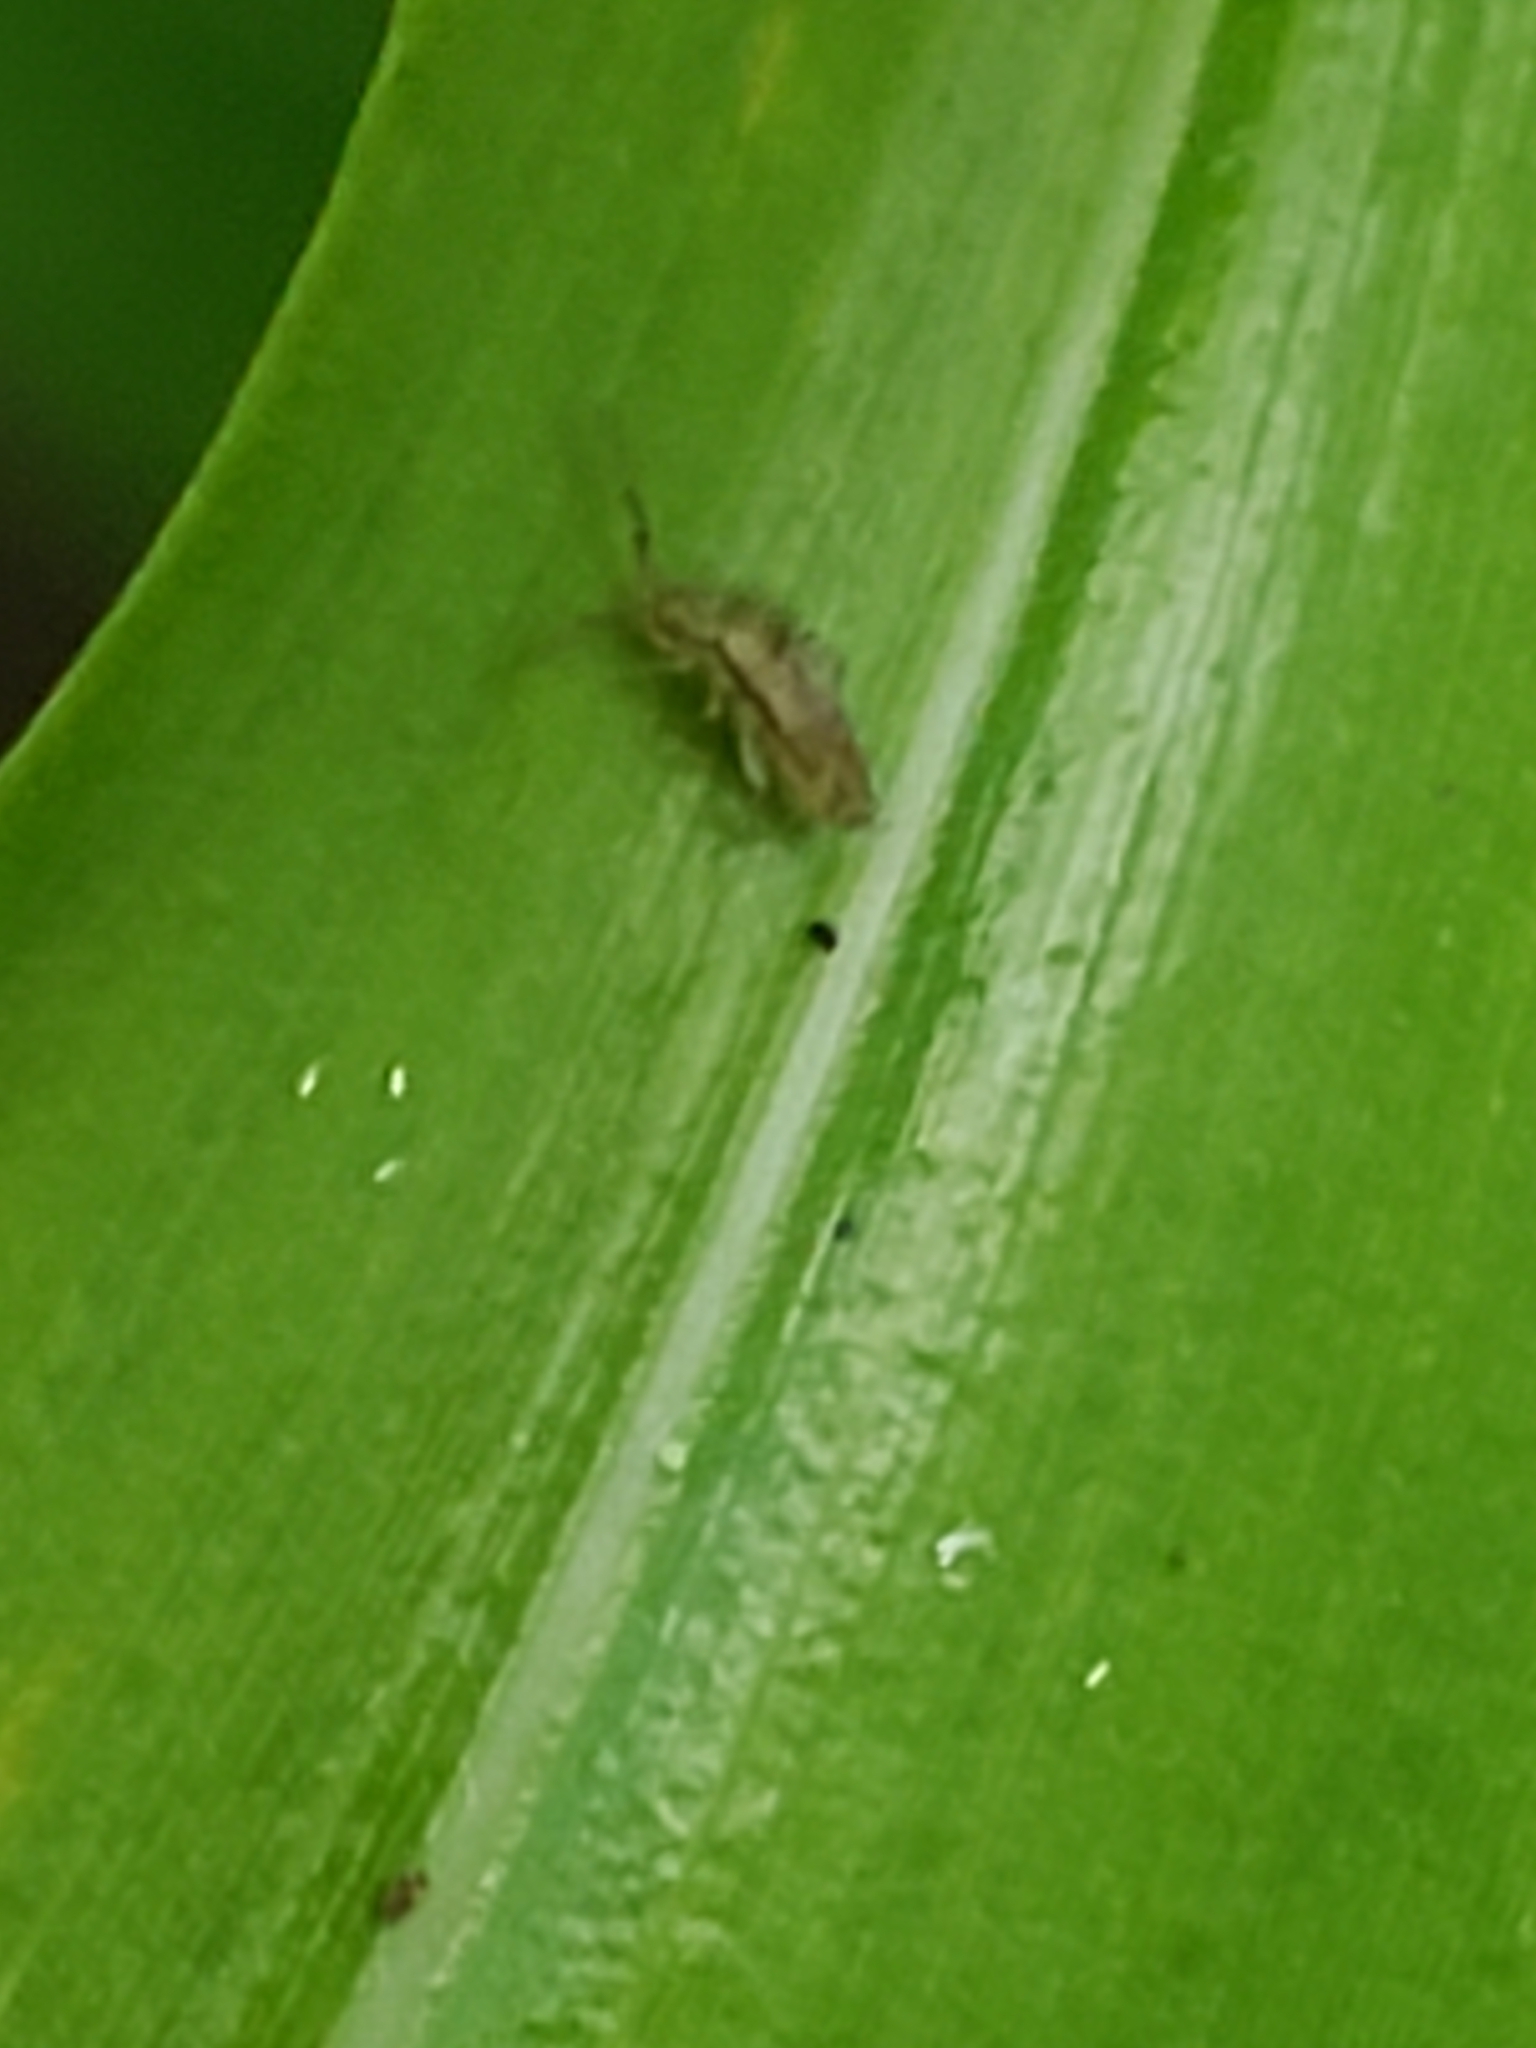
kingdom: Animalia
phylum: Arthropoda
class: Collembola
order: Entomobryomorpha
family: Entomobryidae
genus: Homidia
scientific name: Homidia socia
